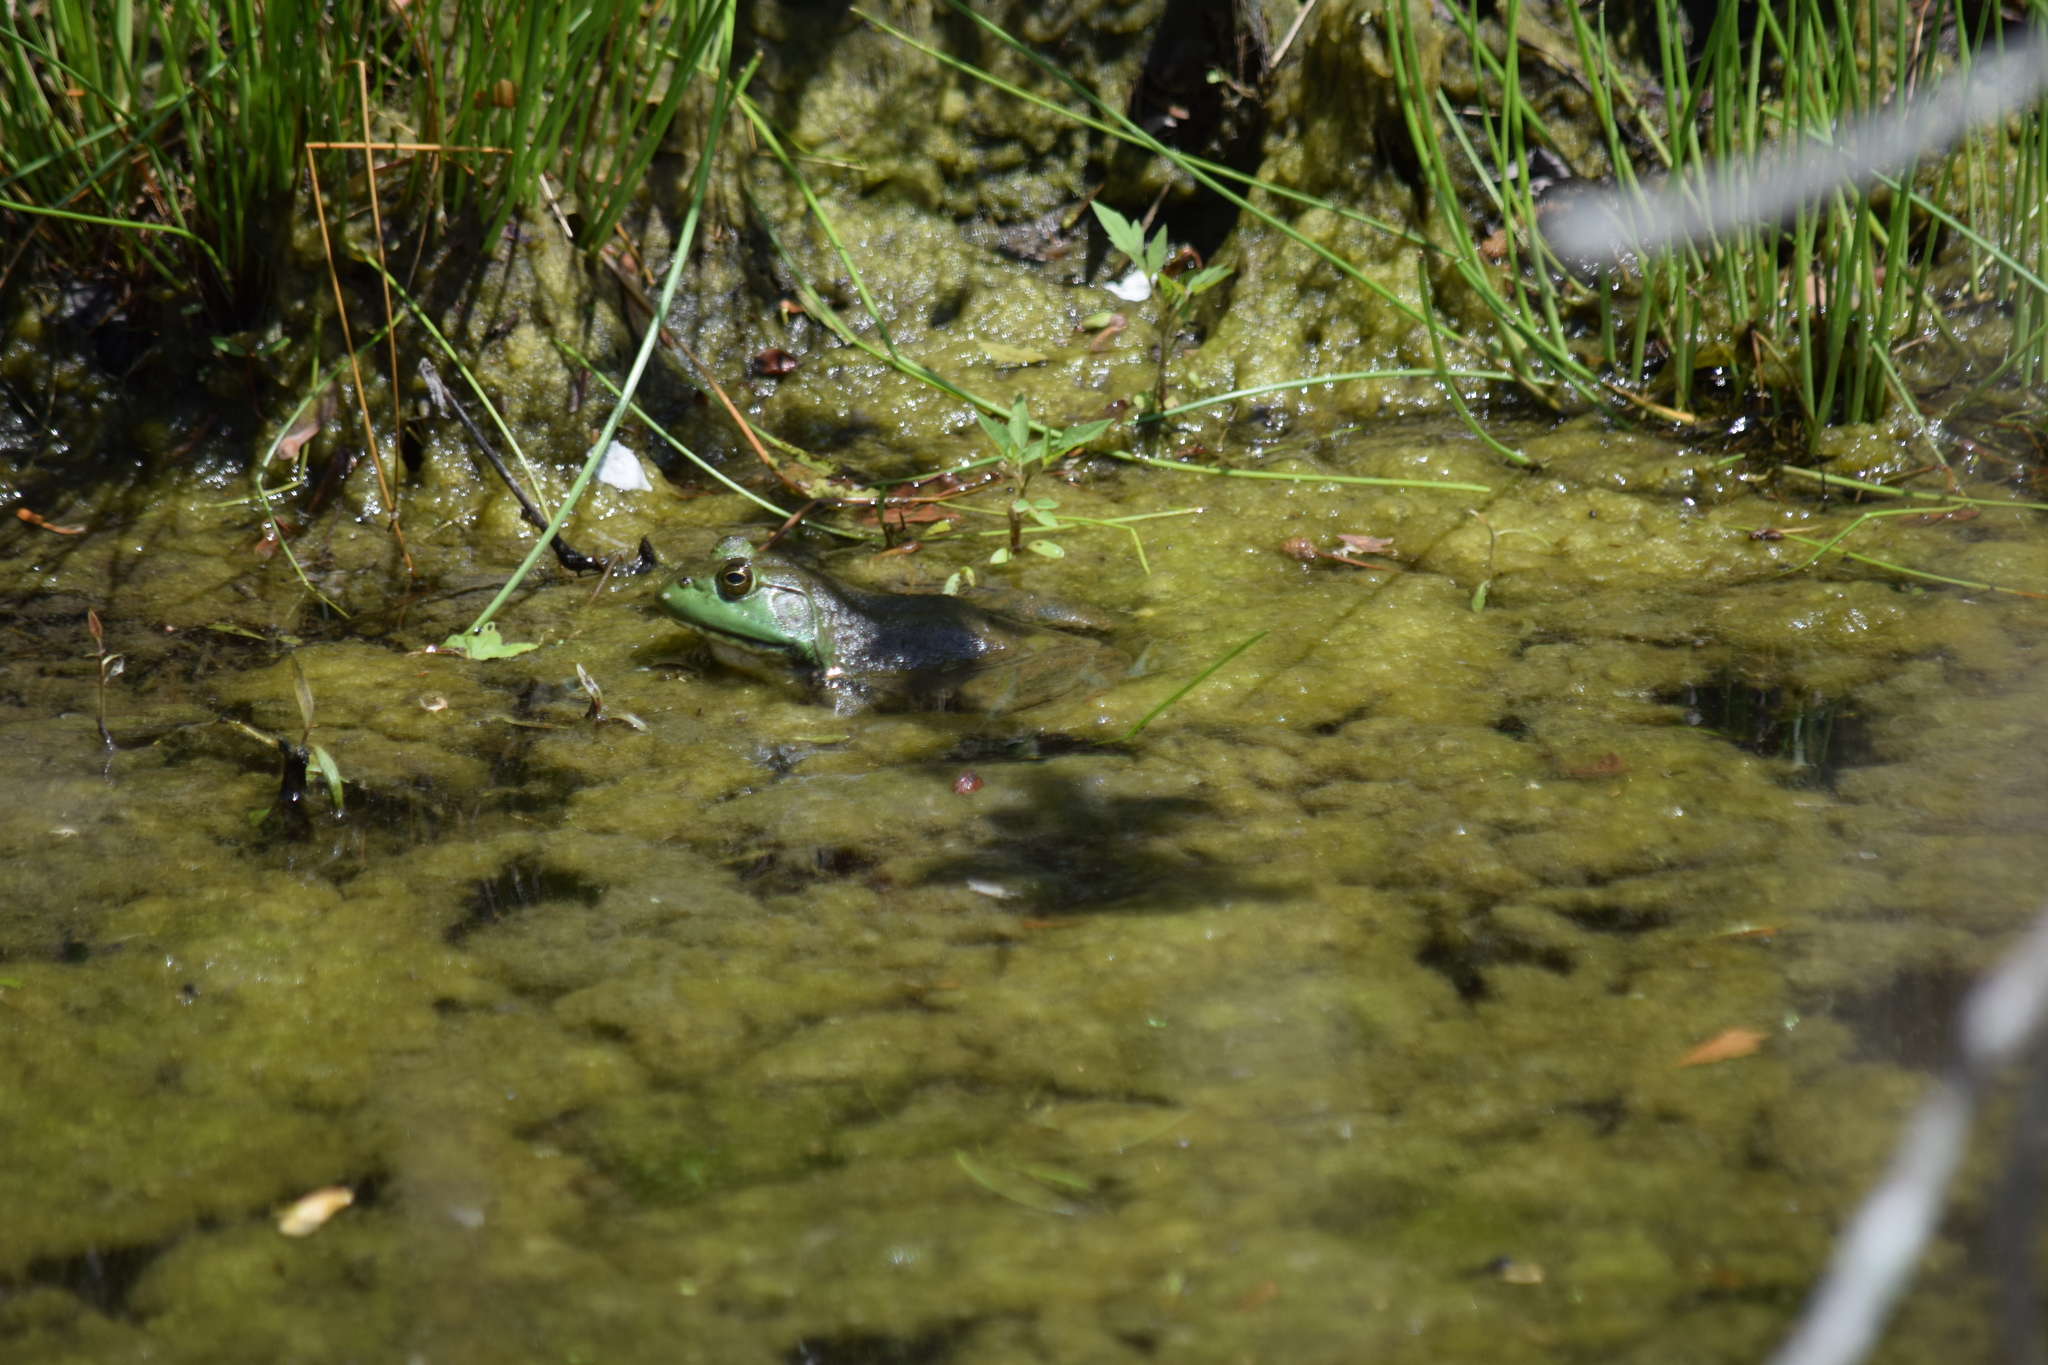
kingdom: Animalia
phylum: Chordata
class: Amphibia
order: Anura
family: Ranidae
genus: Lithobates
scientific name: Lithobates catesbeianus
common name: American bullfrog
